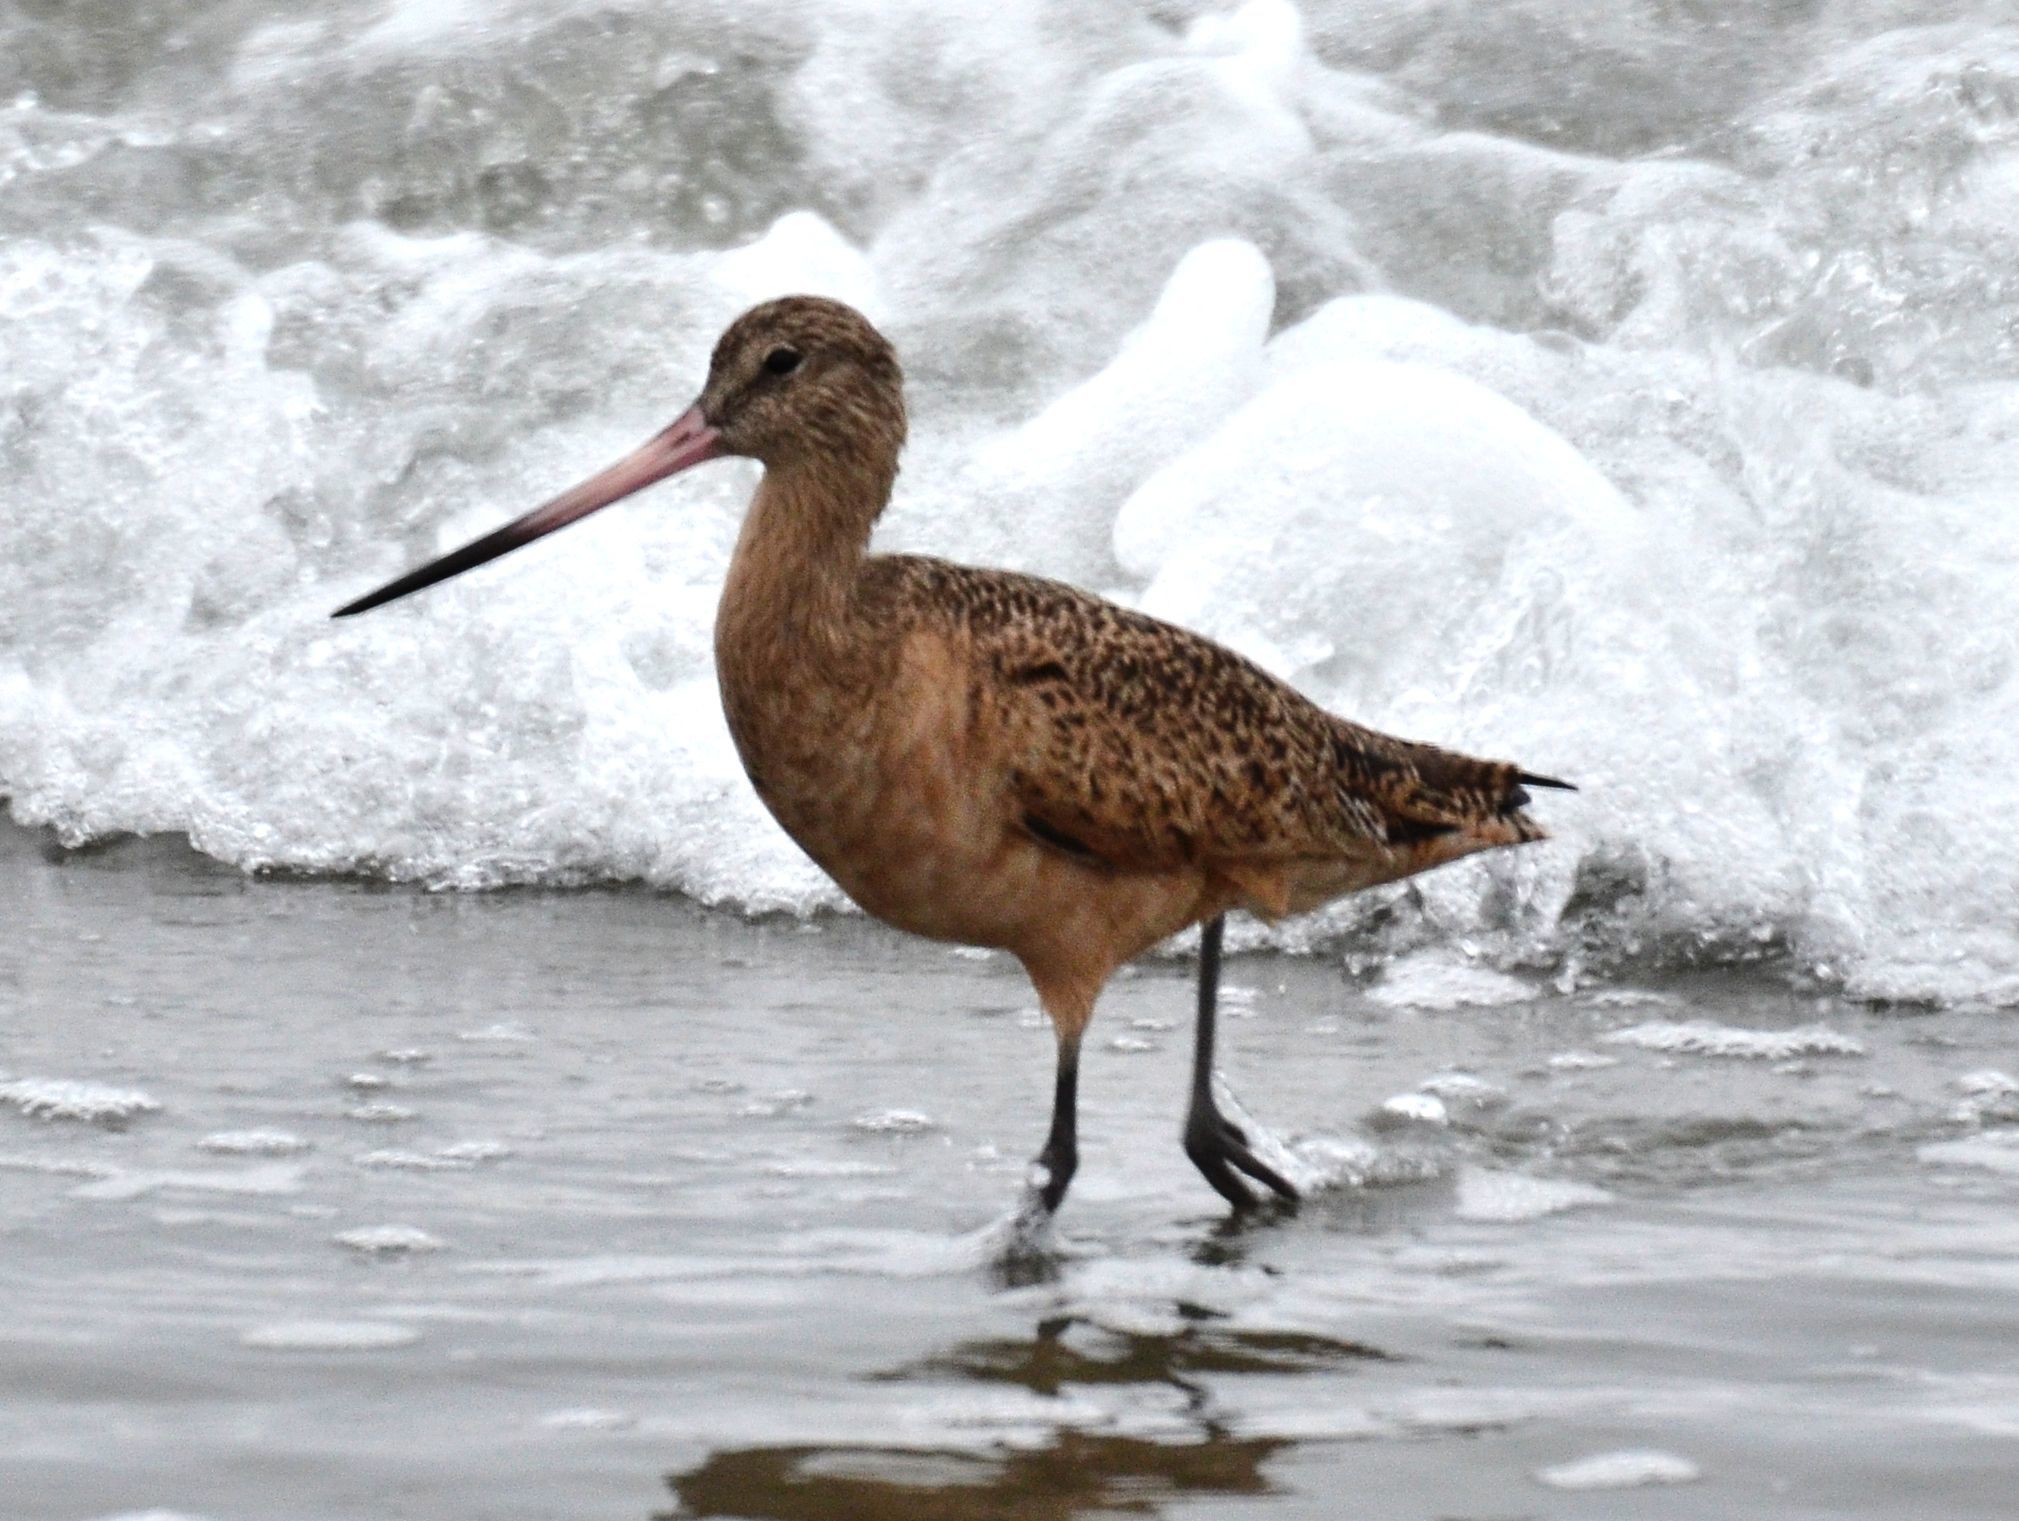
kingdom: Animalia
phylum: Chordata
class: Aves
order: Charadriiformes
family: Scolopacidae
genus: Limosa
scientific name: Limosa fedoa
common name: Marbled godwit
